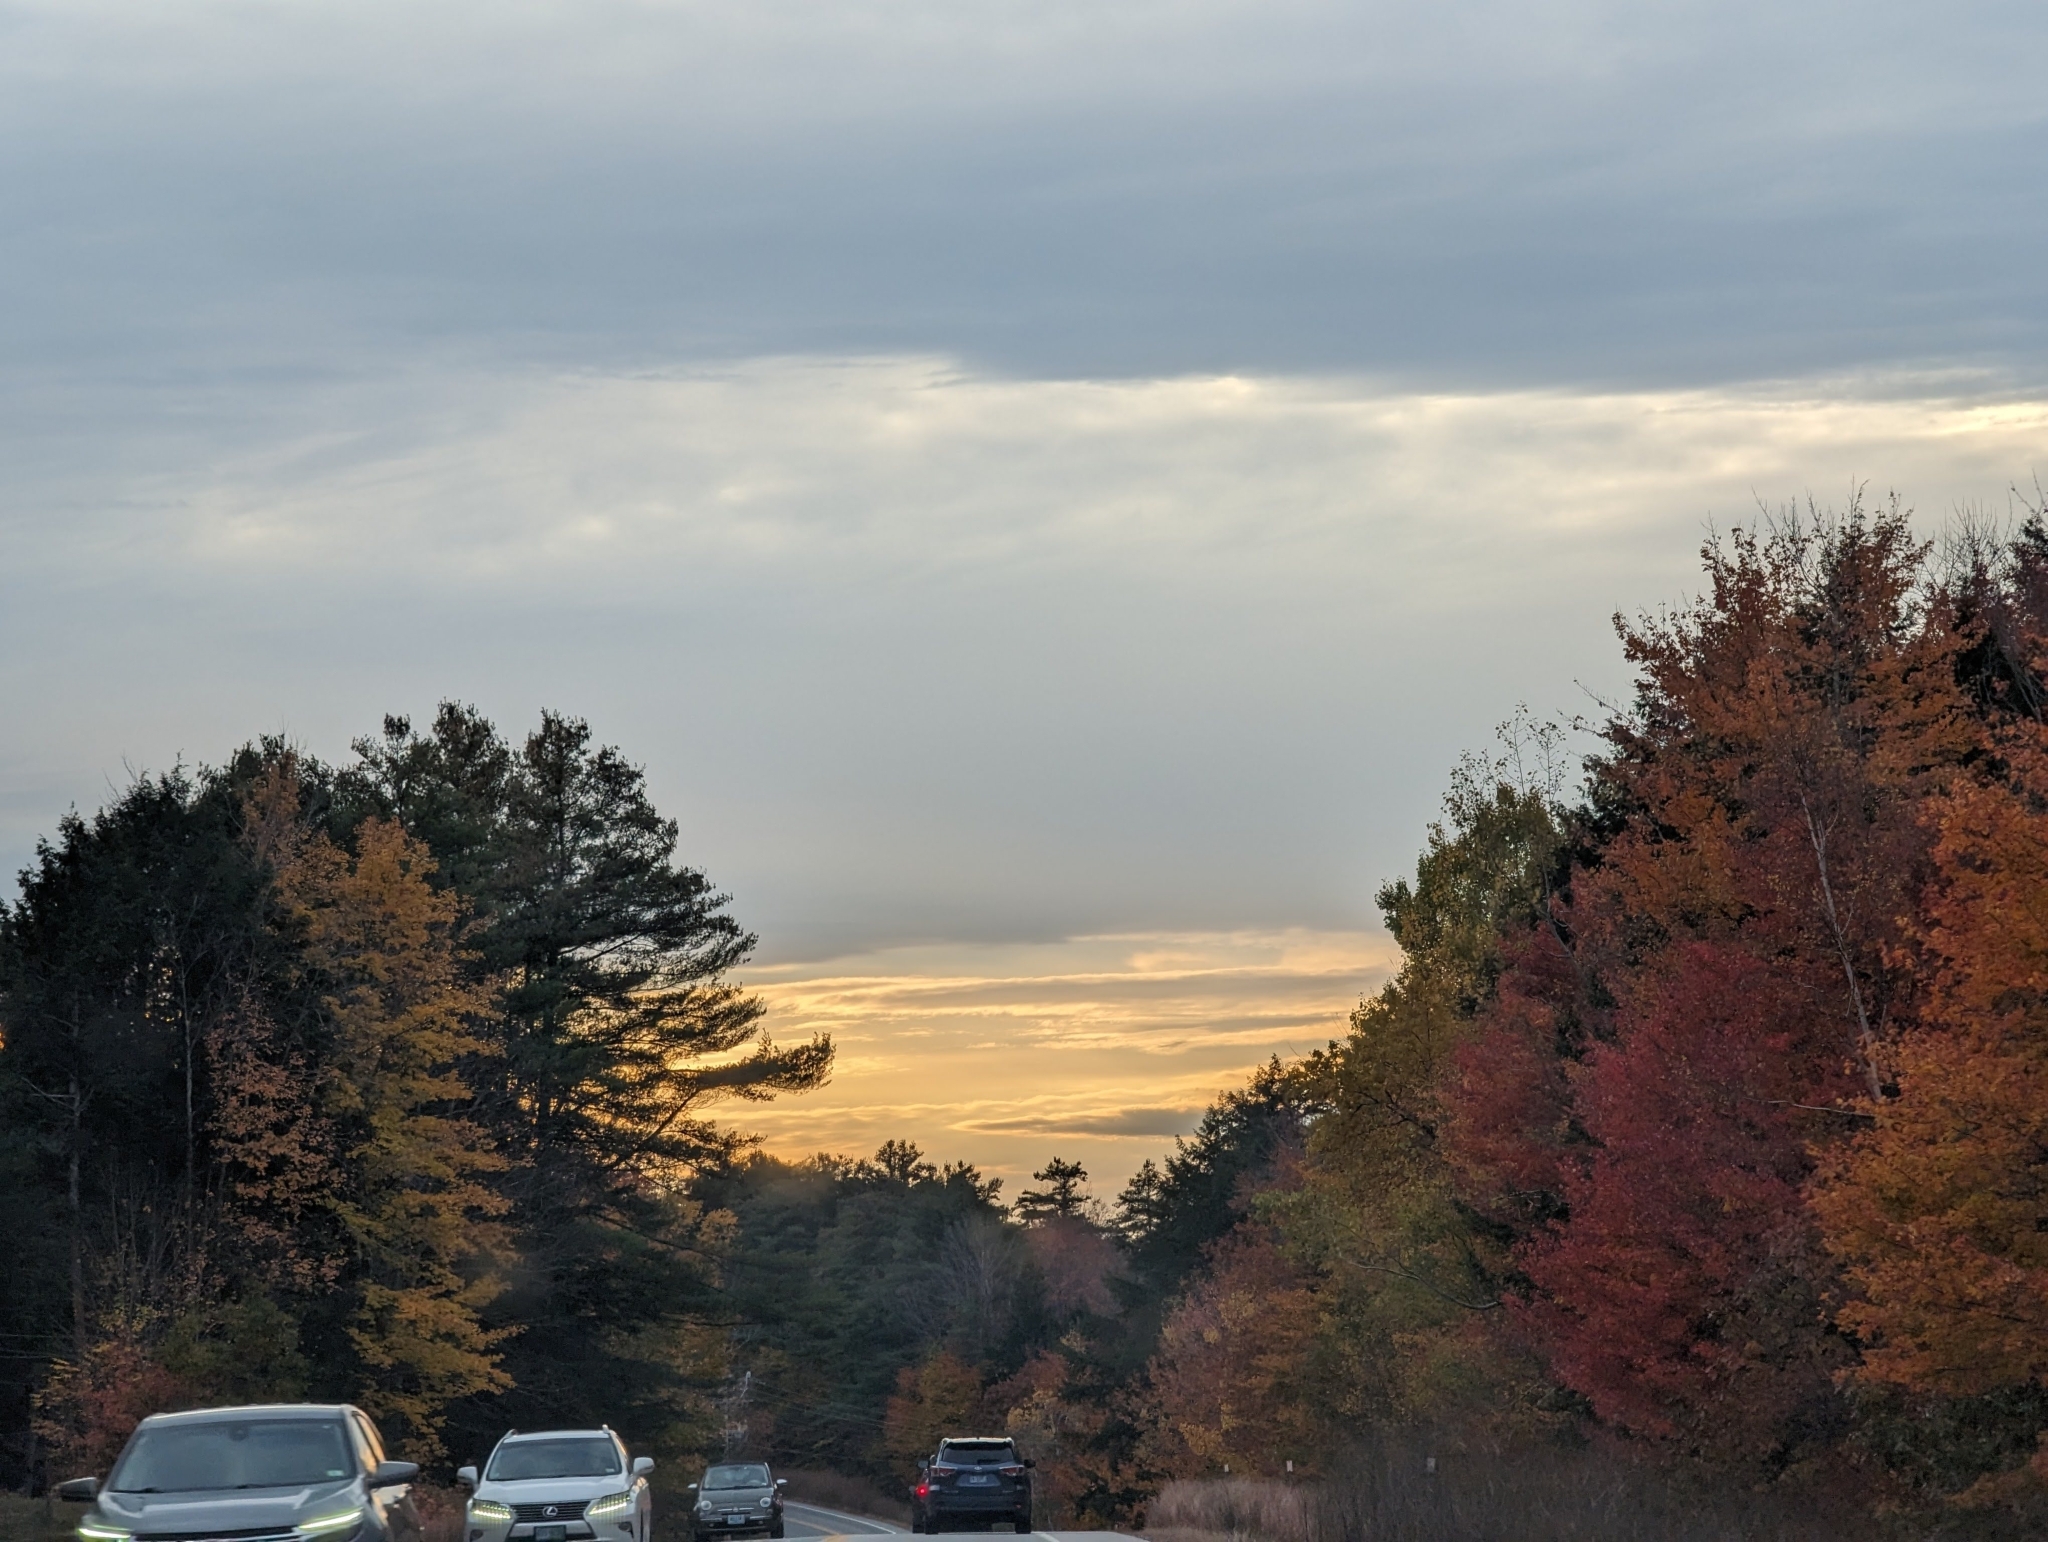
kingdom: Plantae
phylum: Tracheophyta
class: Pinopsida
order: Pinales
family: Pinaceae
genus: Pinus
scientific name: Pinus strobus
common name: Weymouth pine
